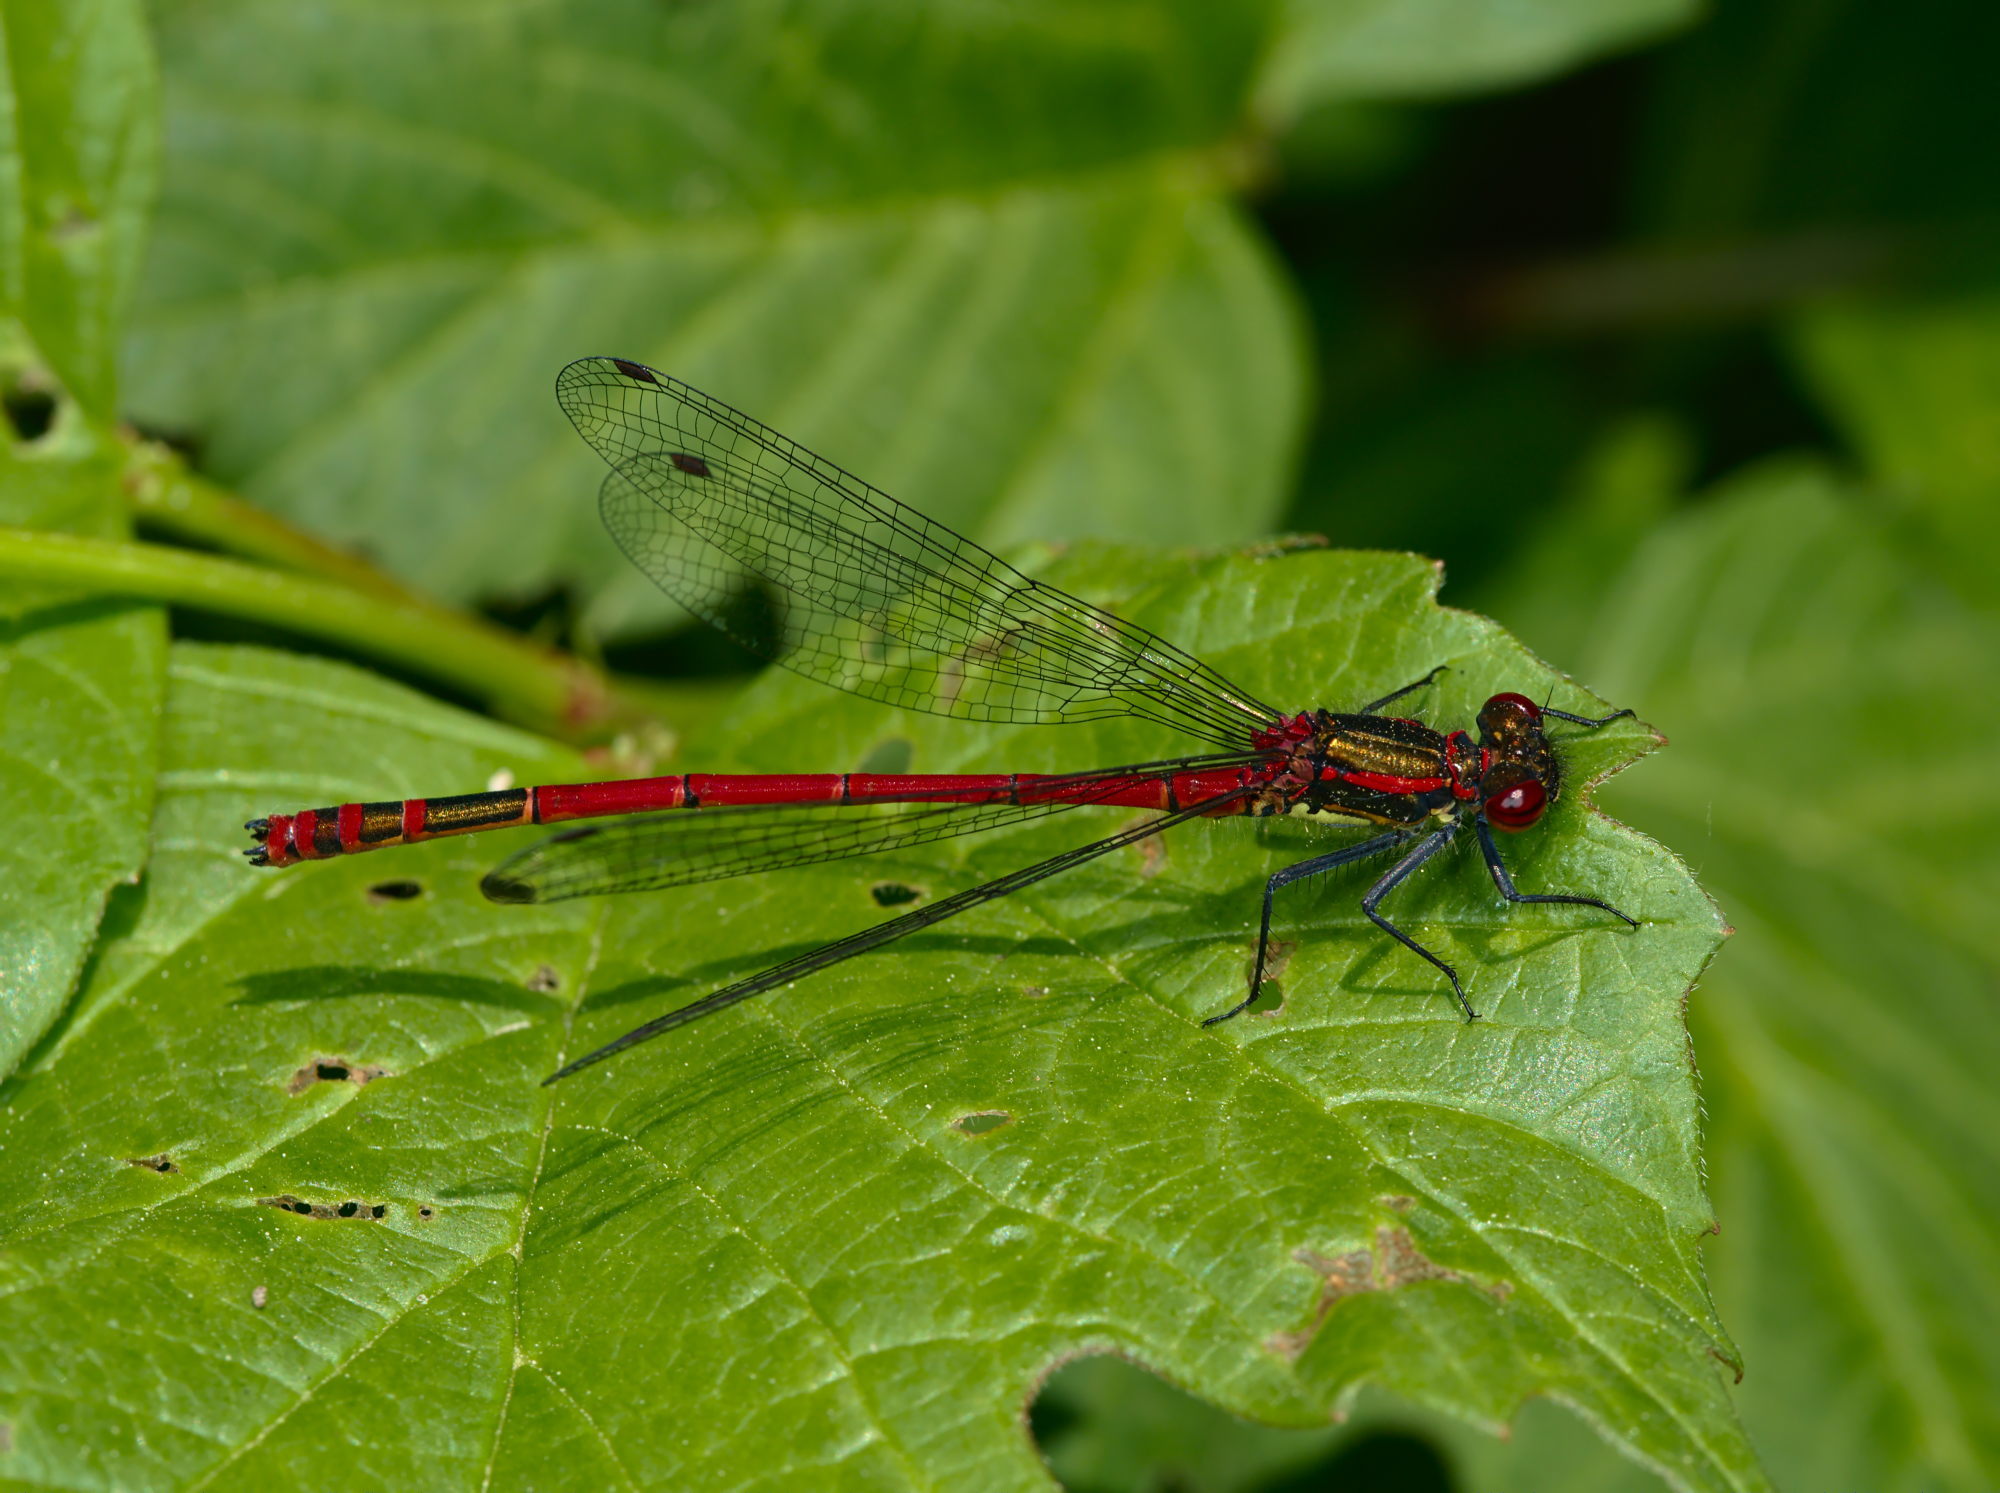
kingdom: Animalia
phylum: Arthropoda
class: Insecta
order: Odonata
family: Coenagrionidae
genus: Pyrrhosoma
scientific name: Pyrrhosoma nymphula
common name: Large red damsel
